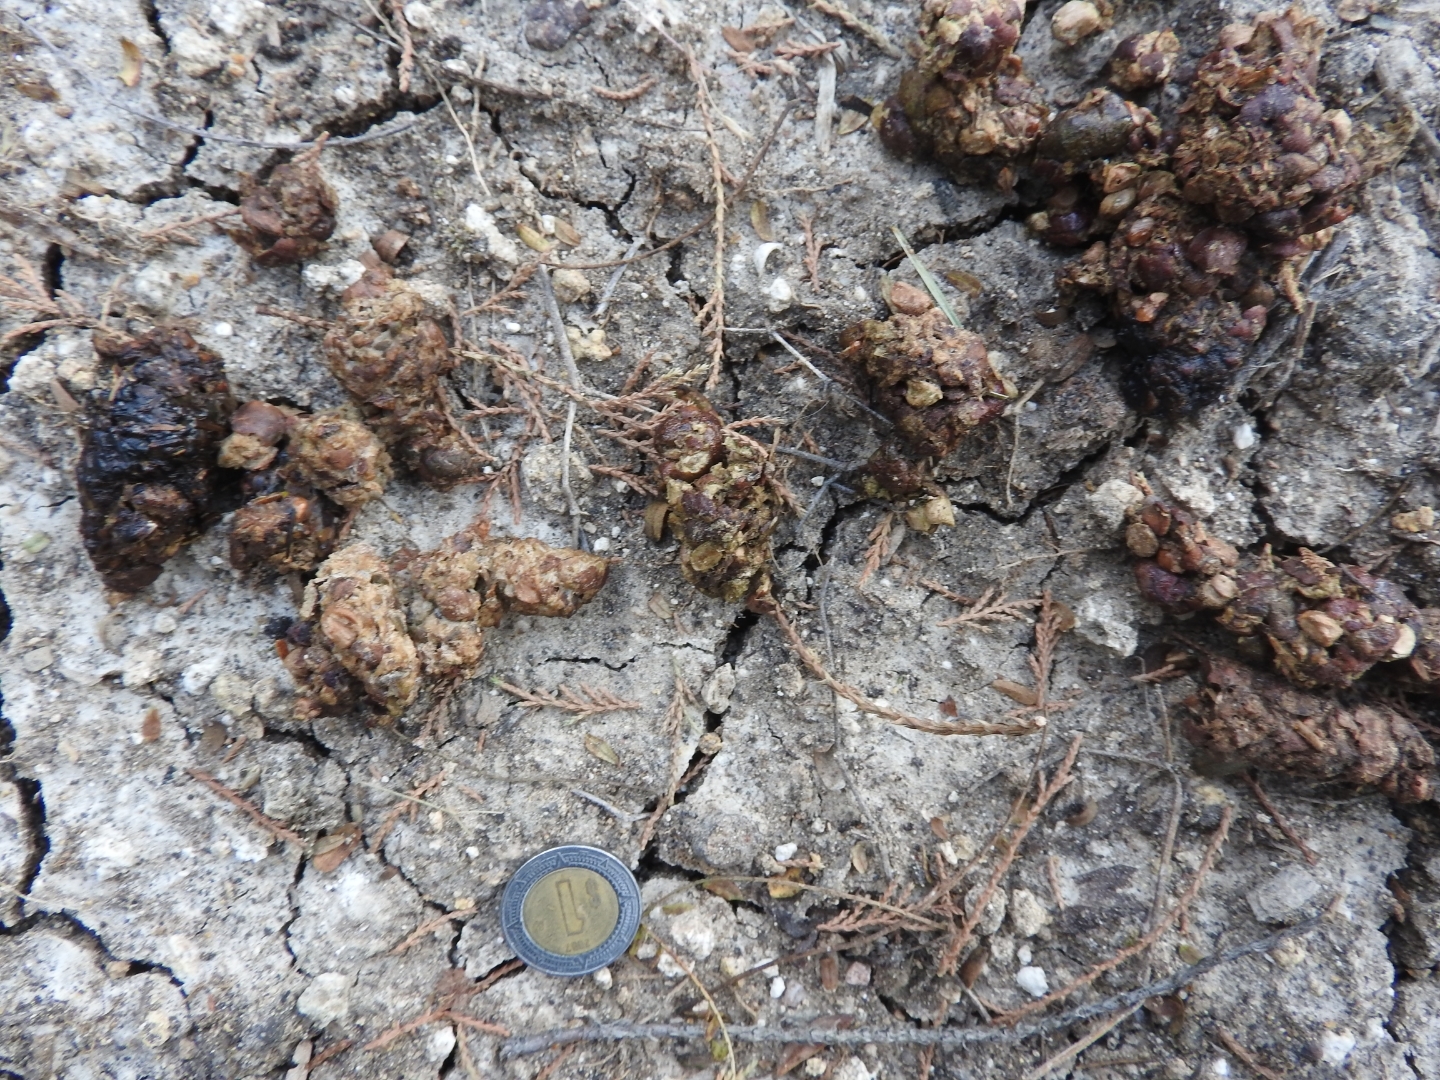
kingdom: Animalia
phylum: Chordata
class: Mammalia
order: Carnivora
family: Procyonidae
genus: Bassariscus
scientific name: Bassariscus astutus
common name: Ringtail
